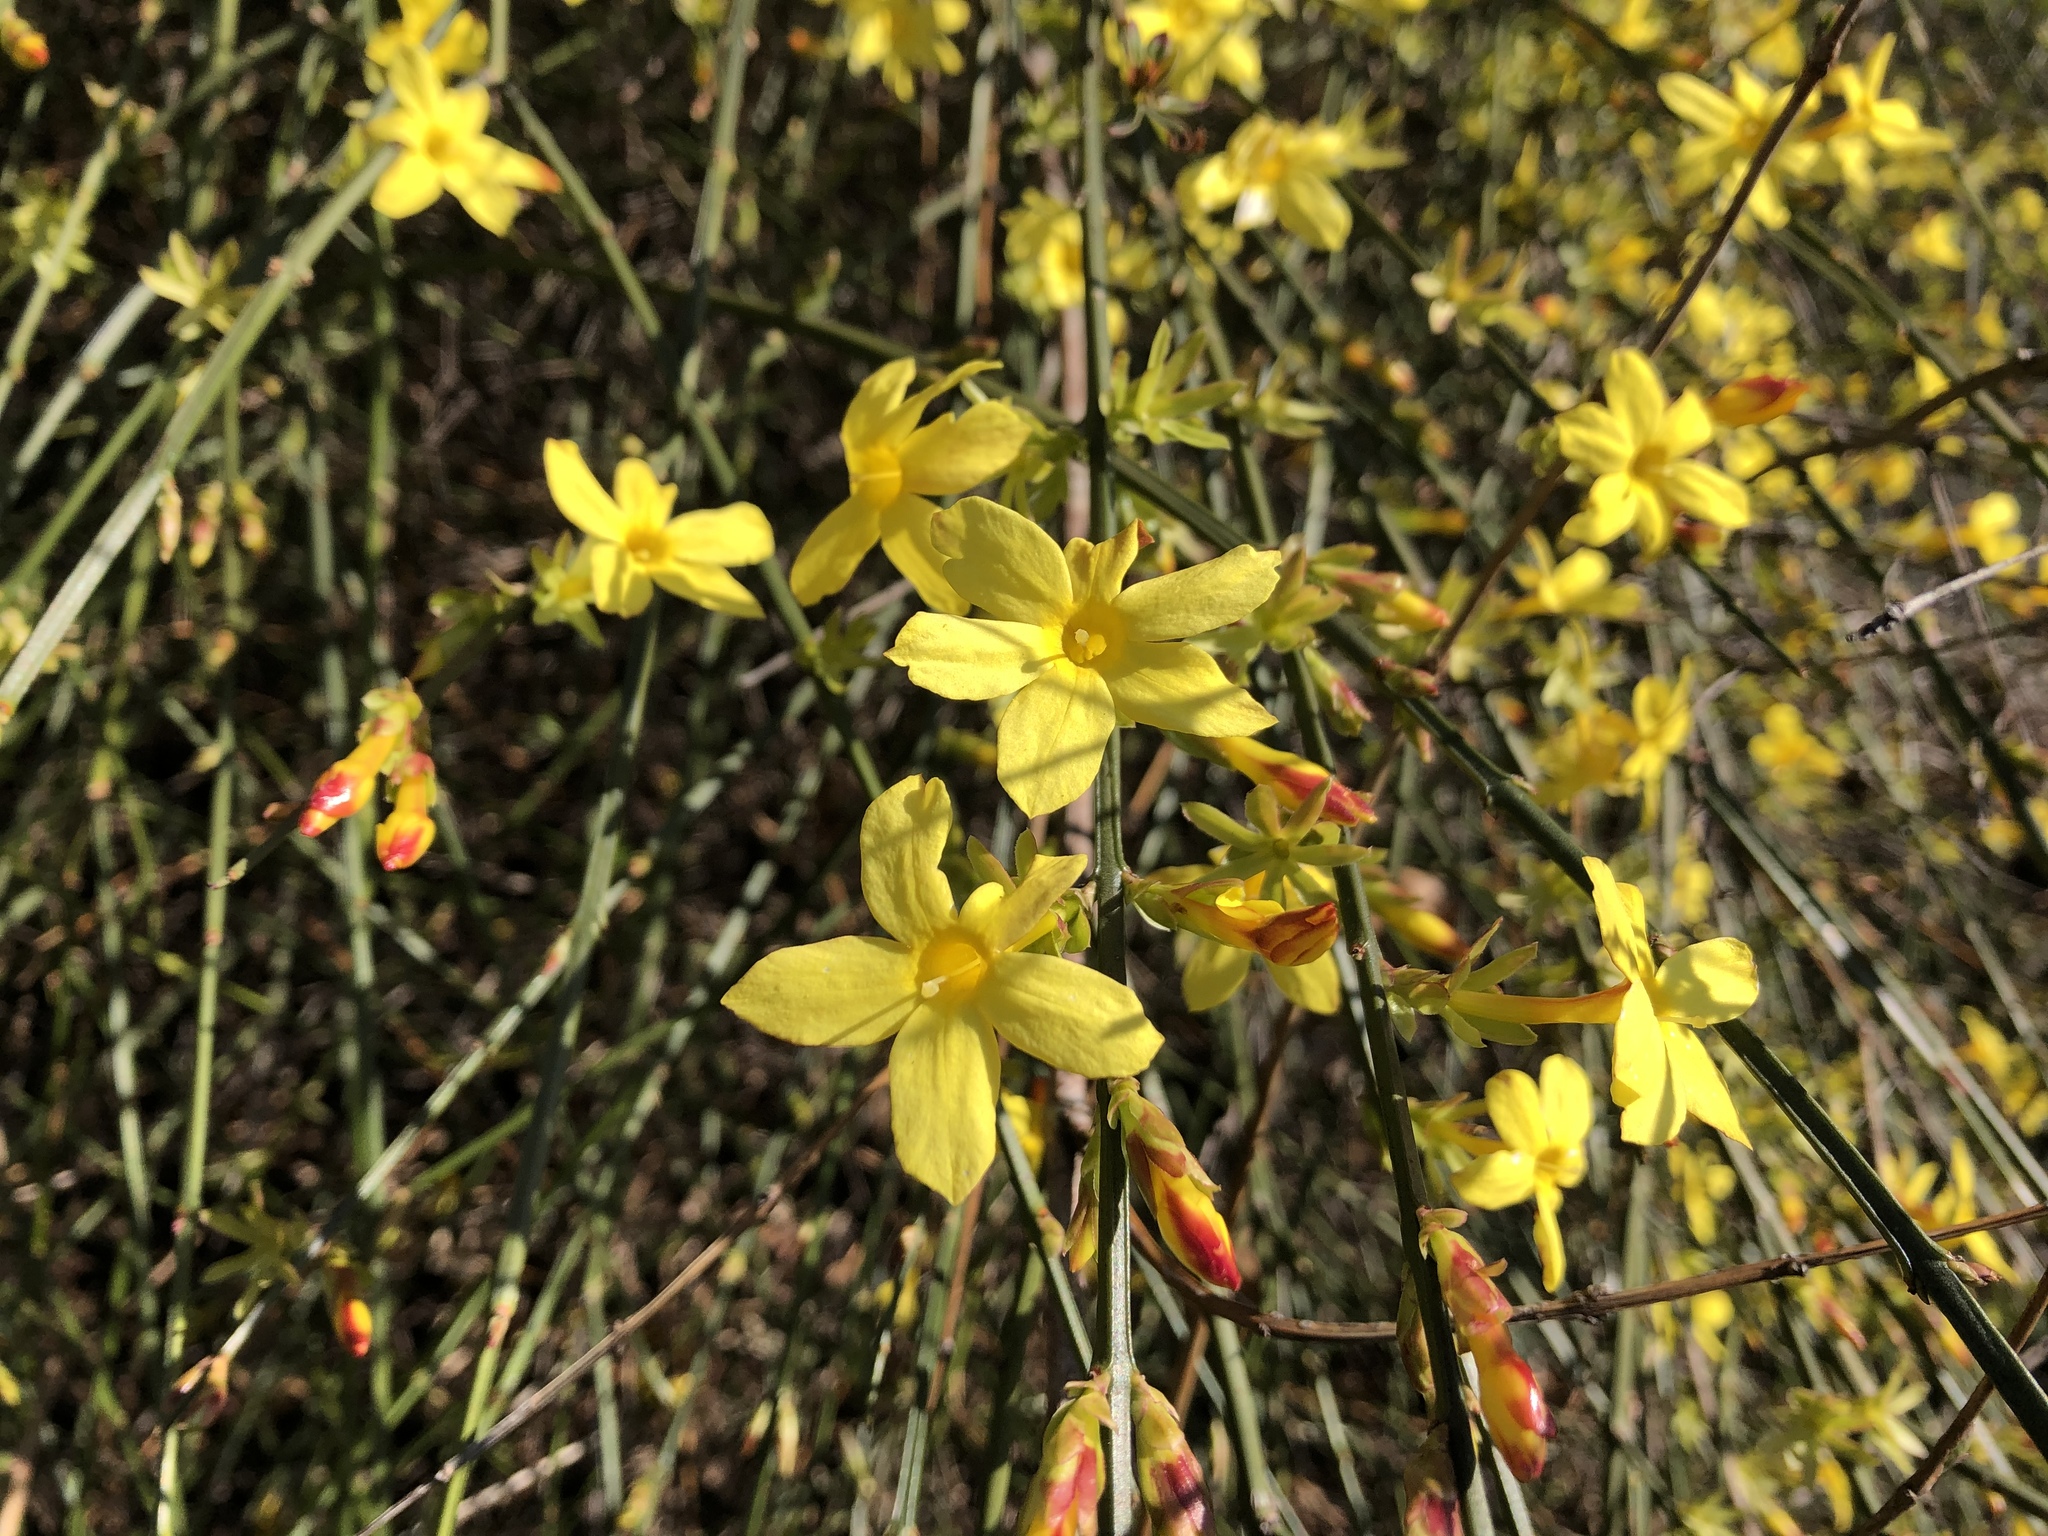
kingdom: Plantae
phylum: Tracheophyta
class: Magnoliopsida
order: Lamiales
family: Oleaceae
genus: Jasminum
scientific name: Jasminum nudiflorum
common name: Winter jasmine
